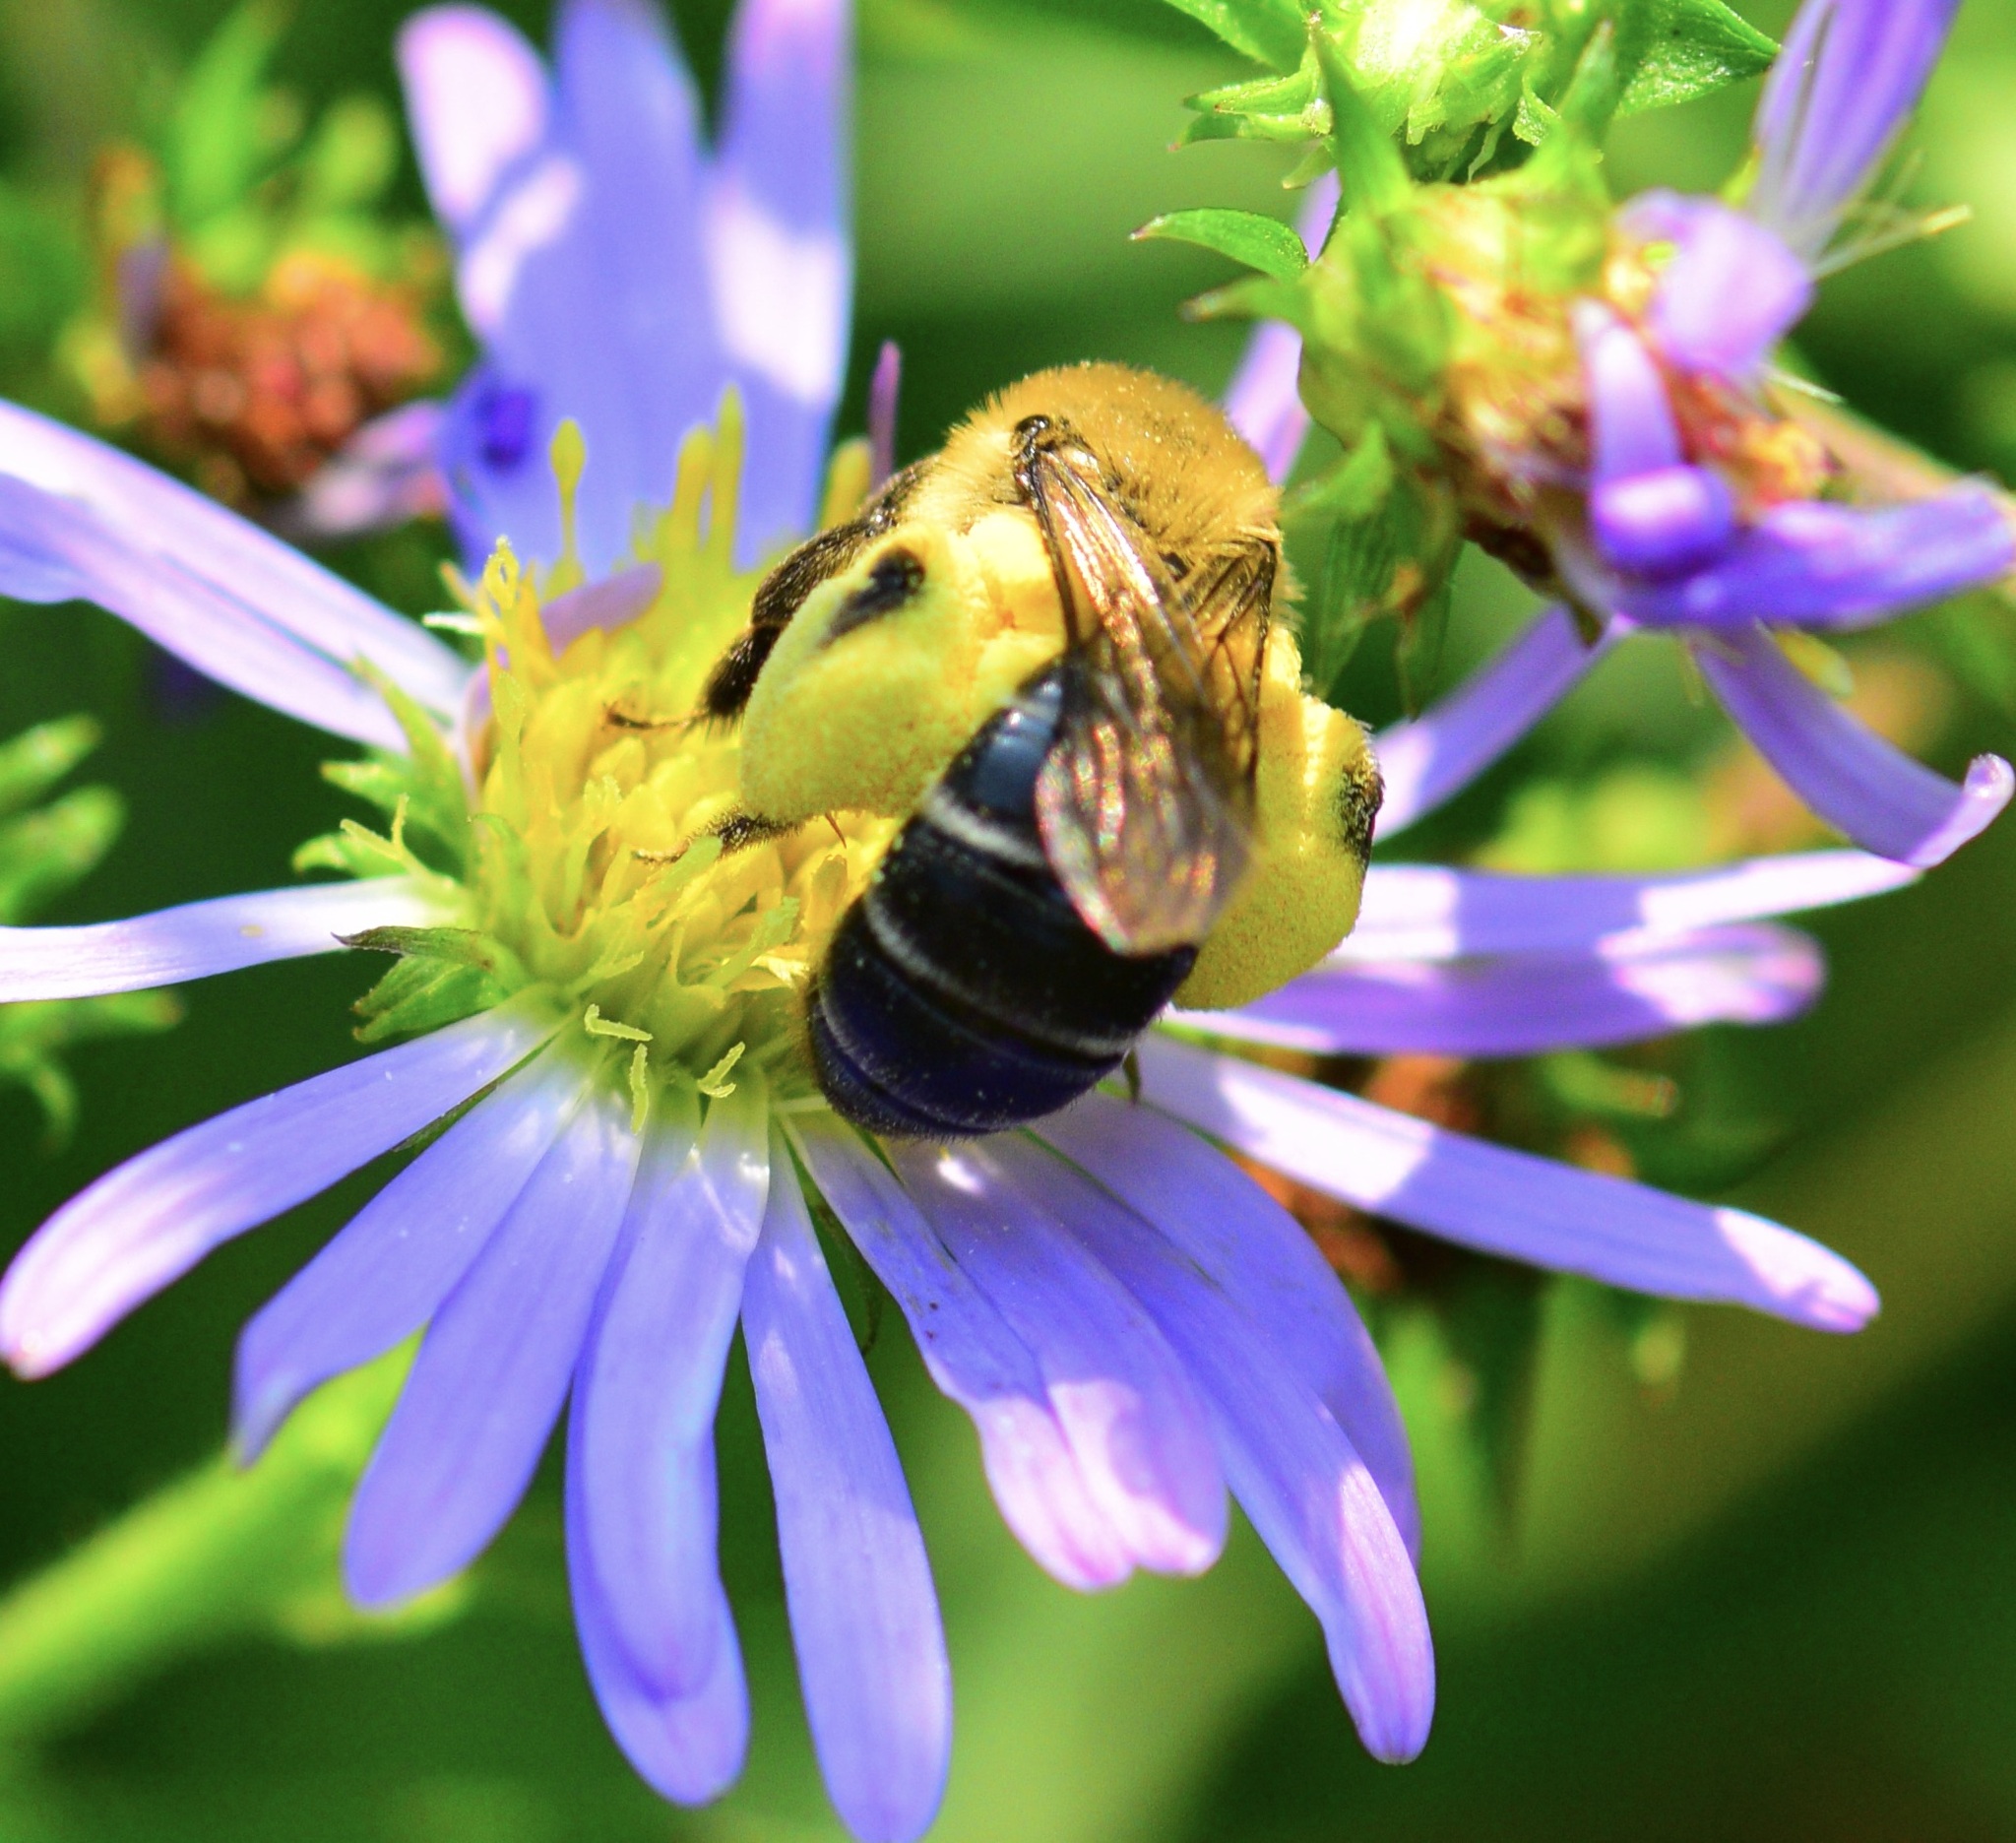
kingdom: Animalia
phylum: Arthropoda
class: Insecta
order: Hymenoptera
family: Andrenidae
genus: Andrena
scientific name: Andrena asteris
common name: Aster mining bee
